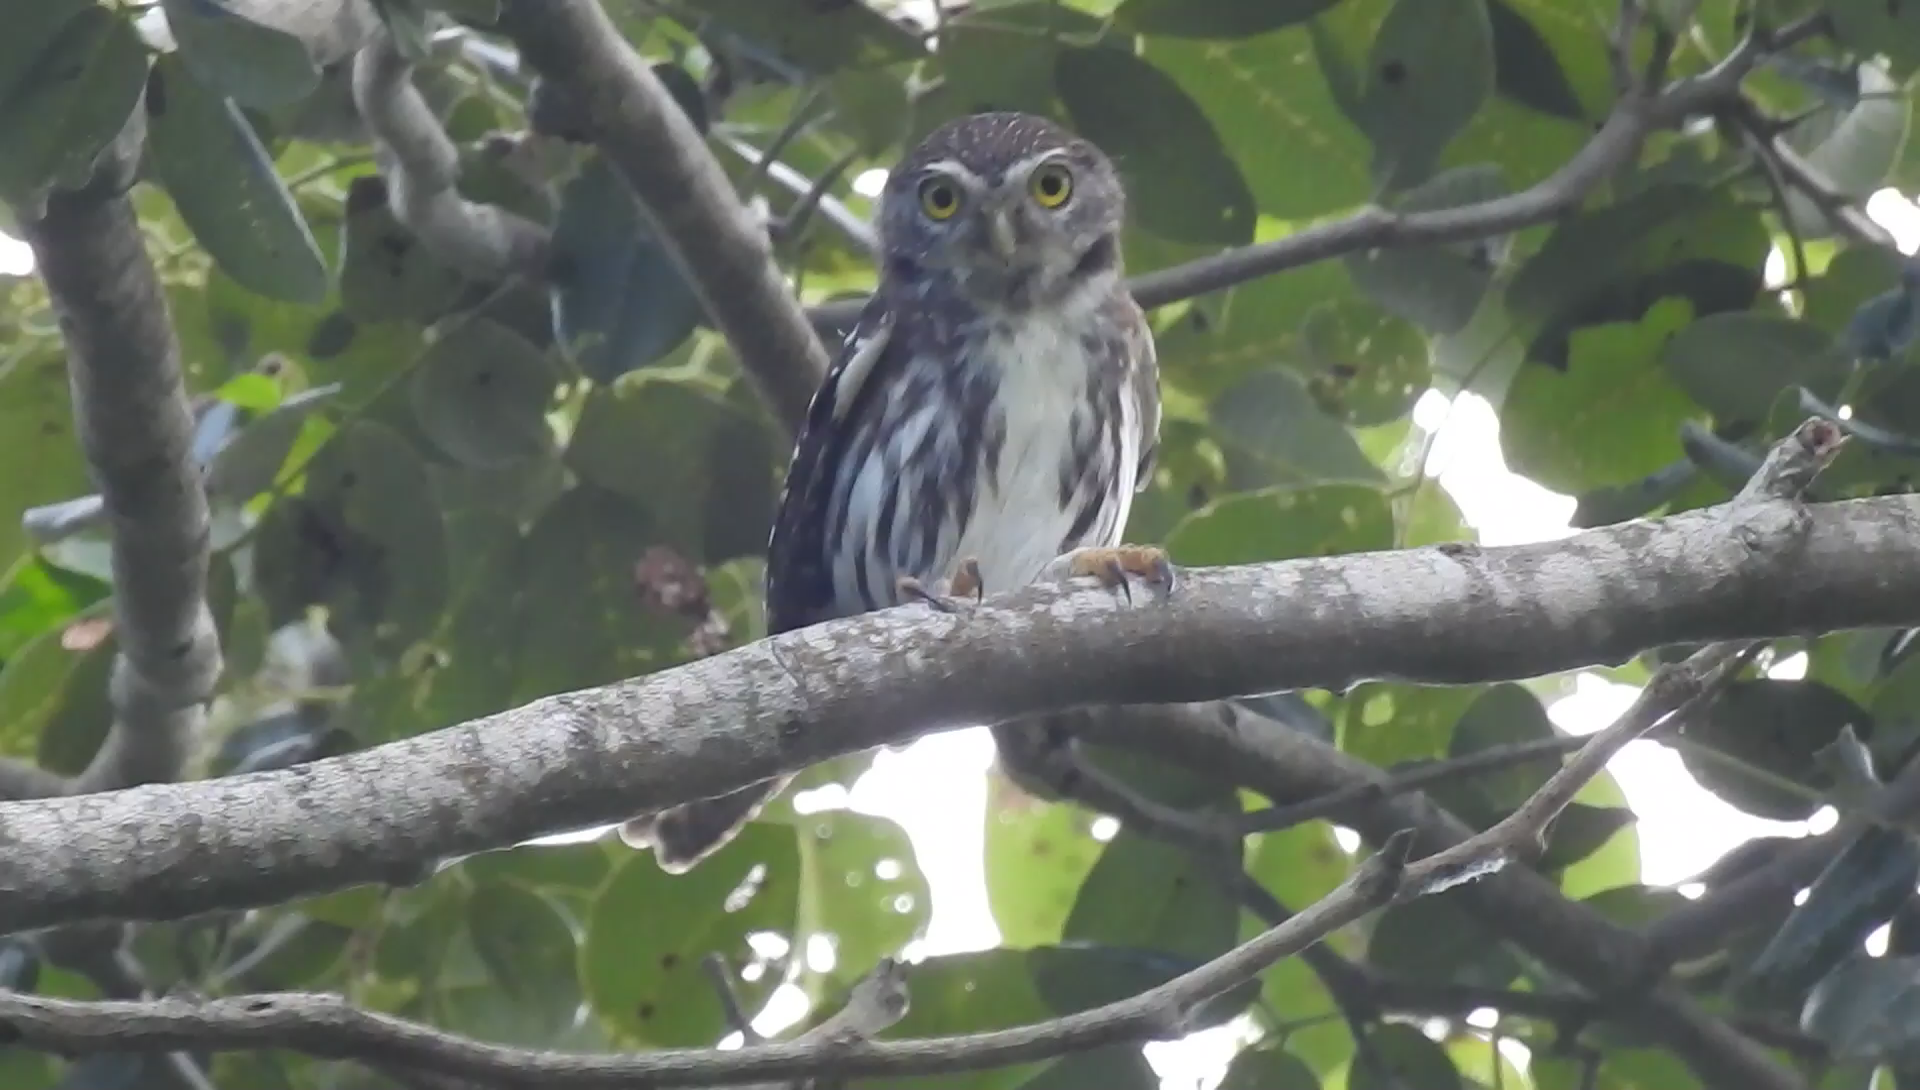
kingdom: Animalia
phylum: Chordata
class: Aves
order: Strigiformes
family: Strigidae
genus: Glaucidium
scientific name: Glaucidium brasilianum
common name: Ferruginous pygmy-owl
